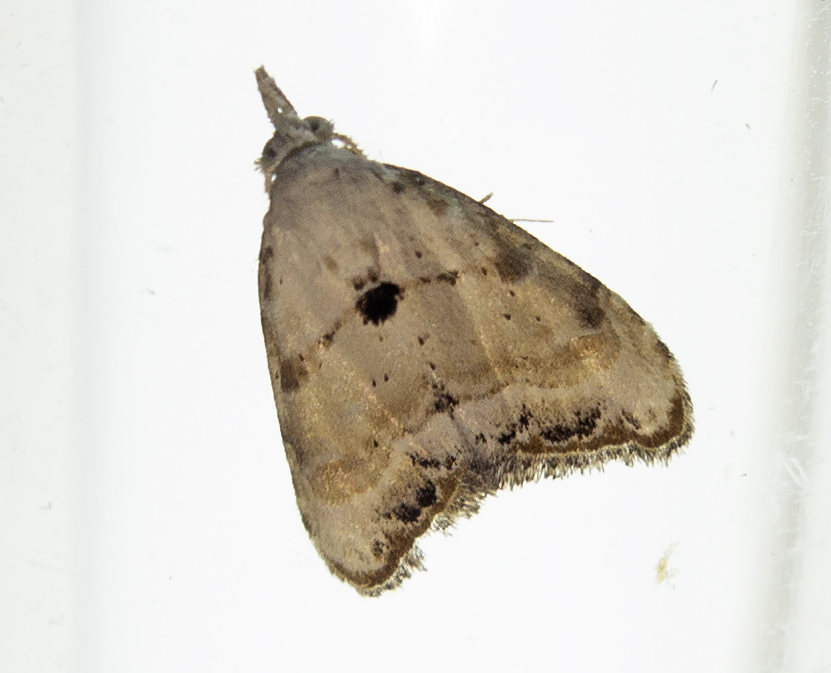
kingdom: Animalia
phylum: Arthropoda
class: Insecta
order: Lepidoptera
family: Nolidae
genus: Nola
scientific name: Nola chlamitulalis
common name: Jersey black arches
